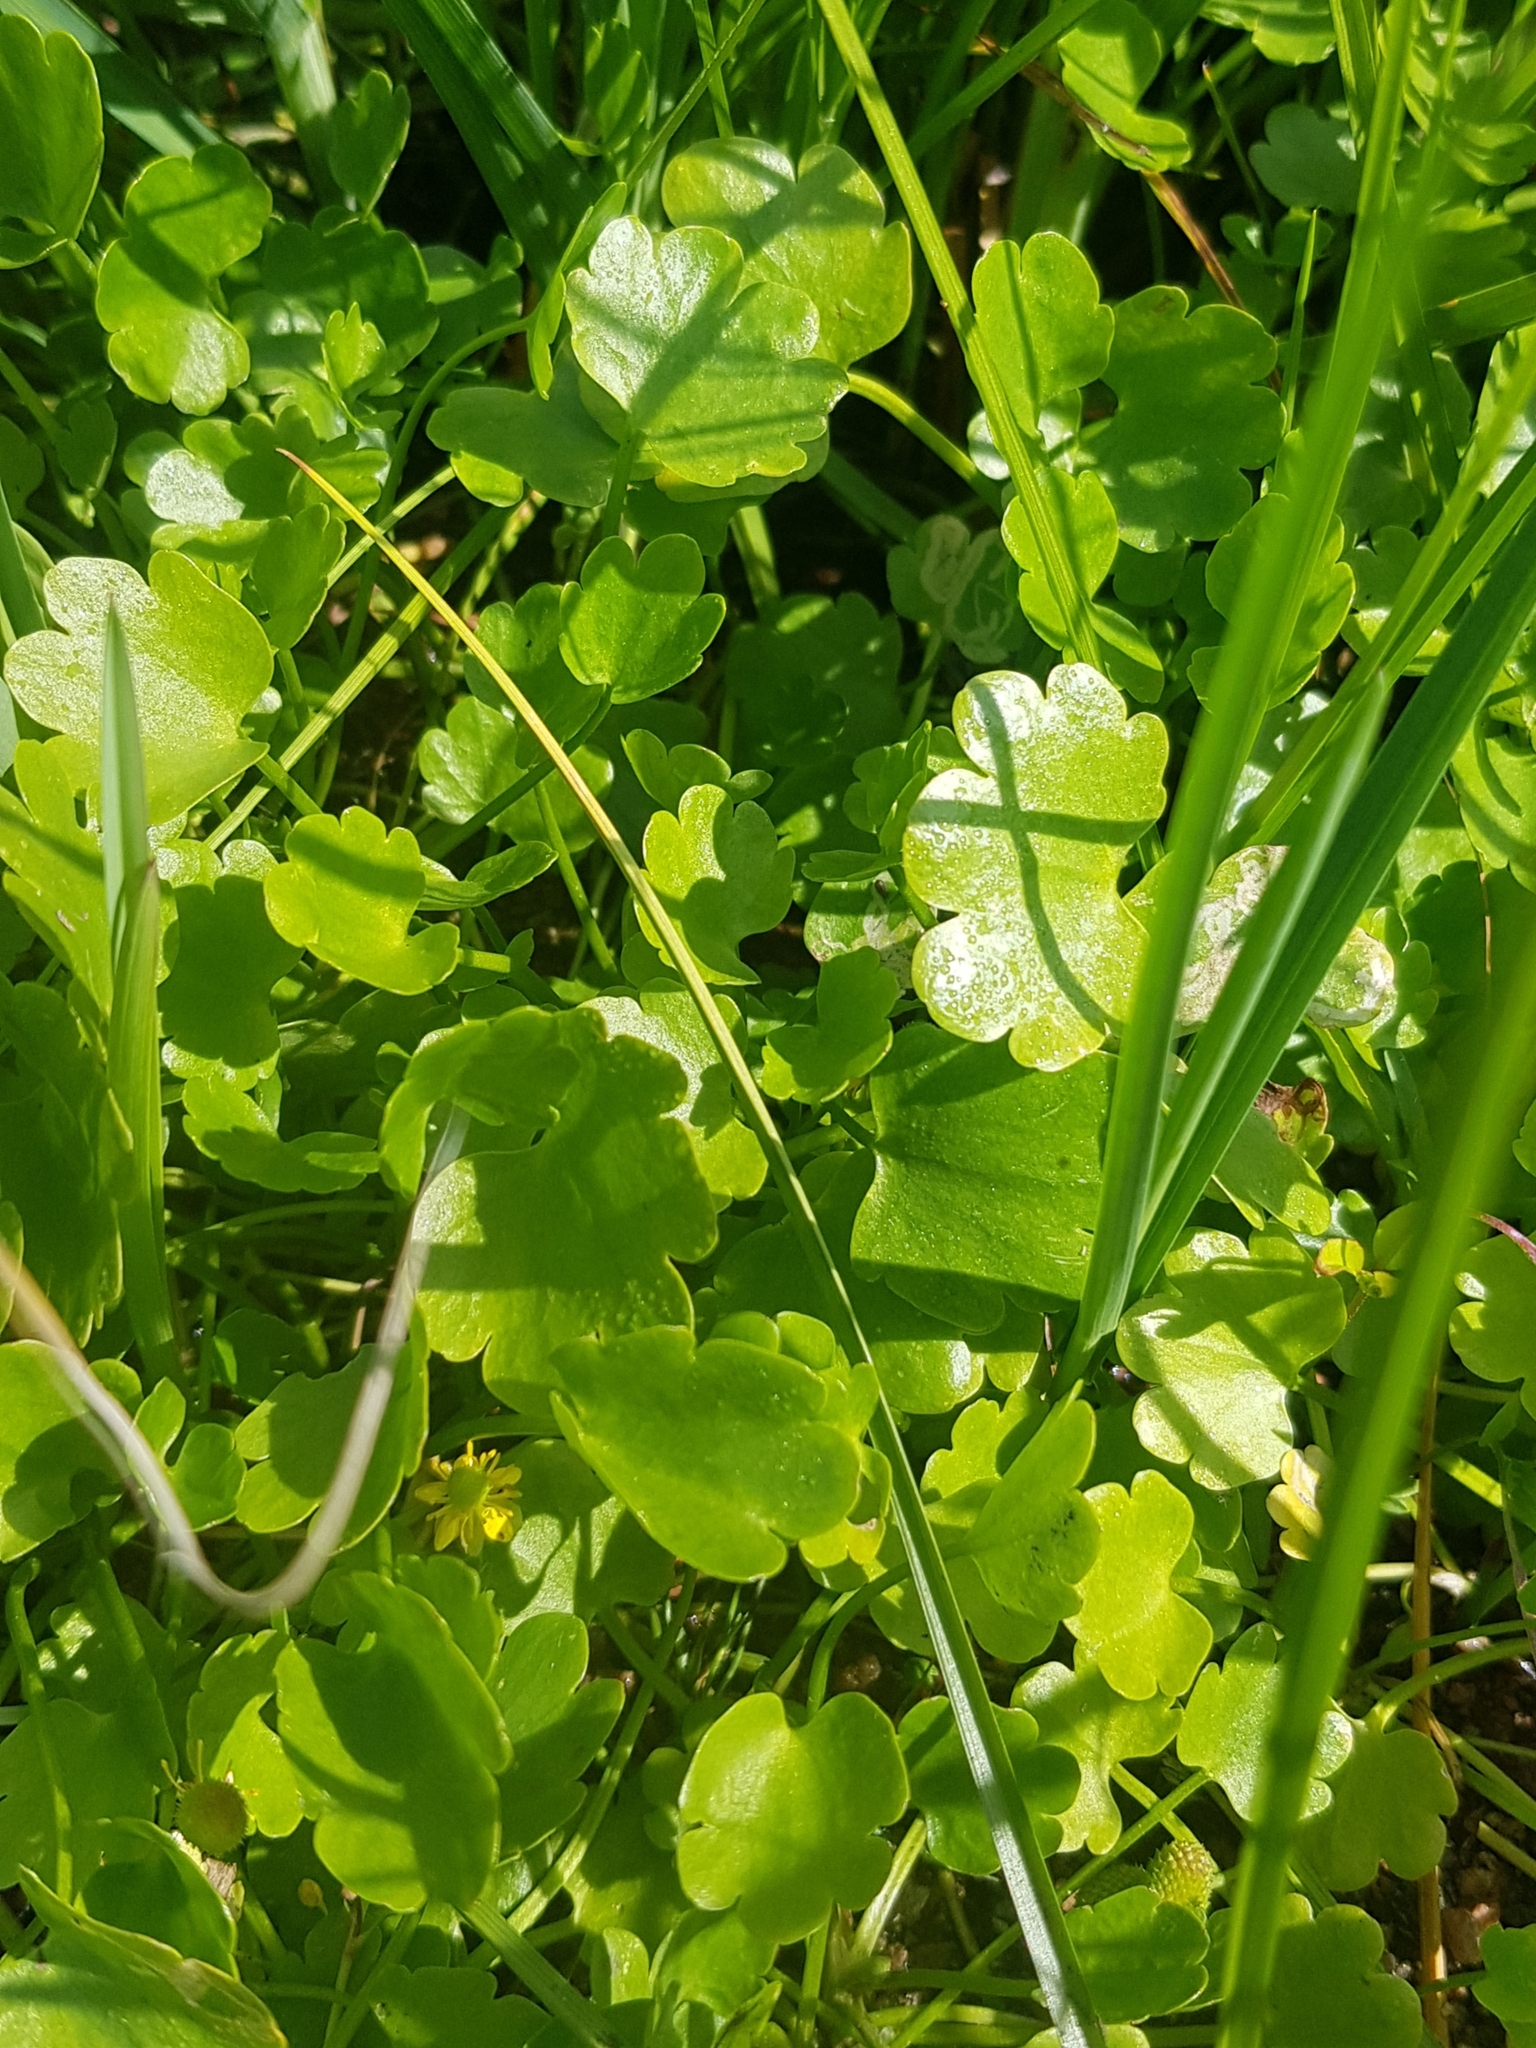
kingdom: Plantae
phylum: Tracheophyta
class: Magnoliopsida
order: Ranunculales
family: Ranunculaceae
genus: Halerpestes
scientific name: Halerpestes sarmentosus
